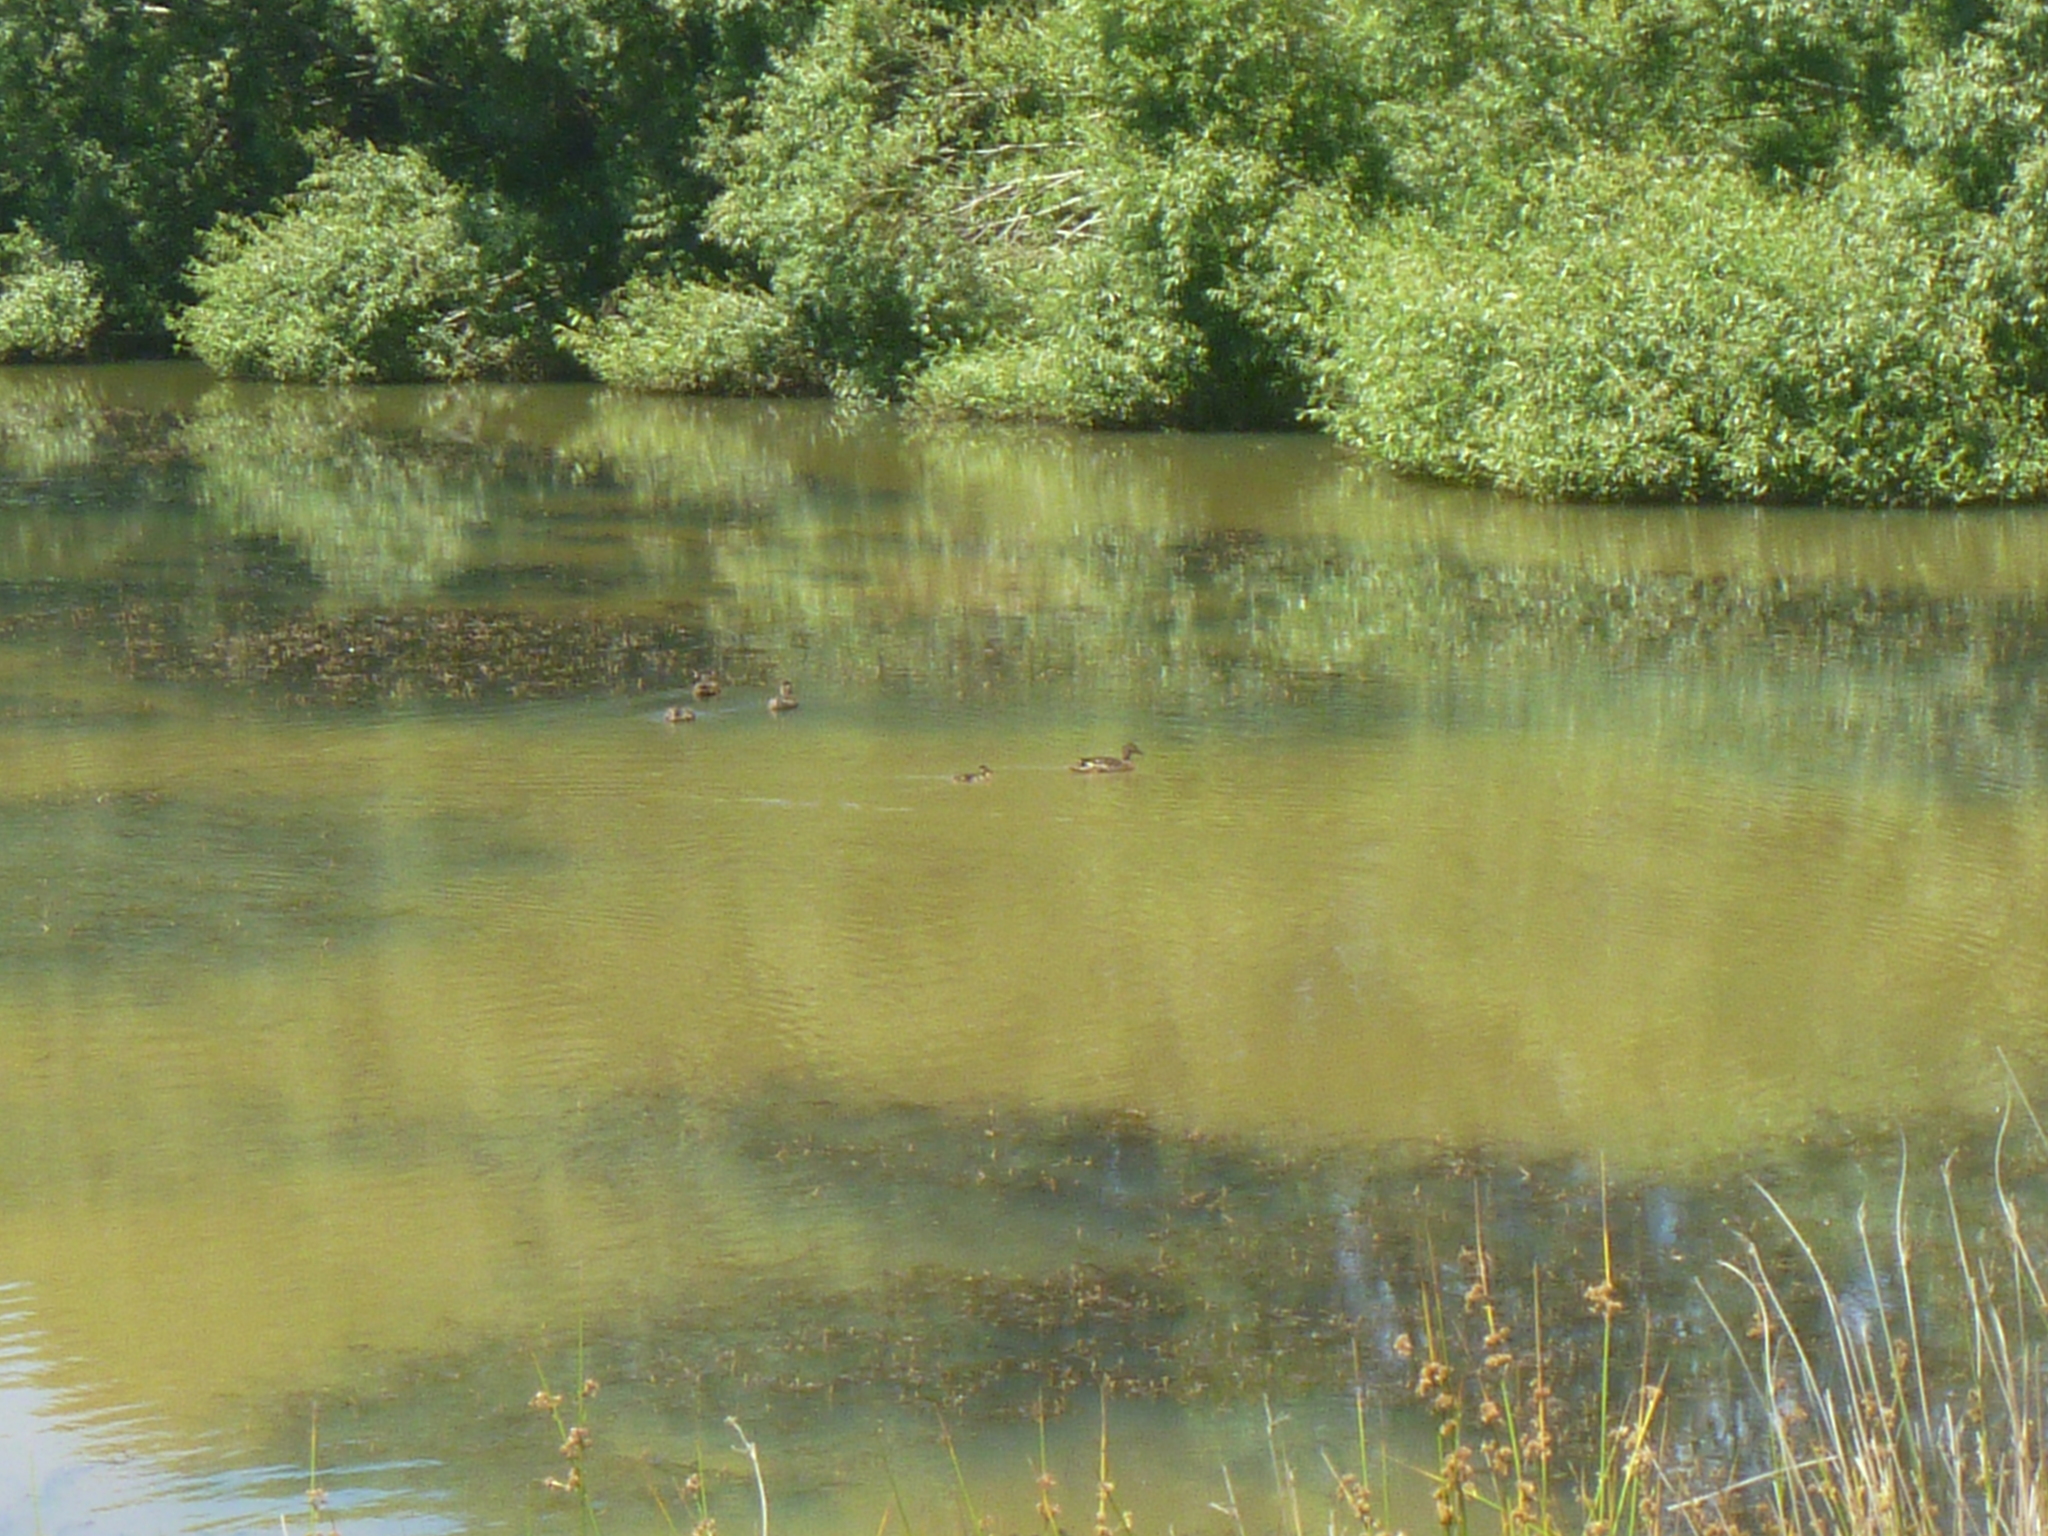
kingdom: Animalia
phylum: Chordata
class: Aves
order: Anseriformes
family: Anatidae
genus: Anas
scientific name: Anas platyrhynchos
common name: Mallard
